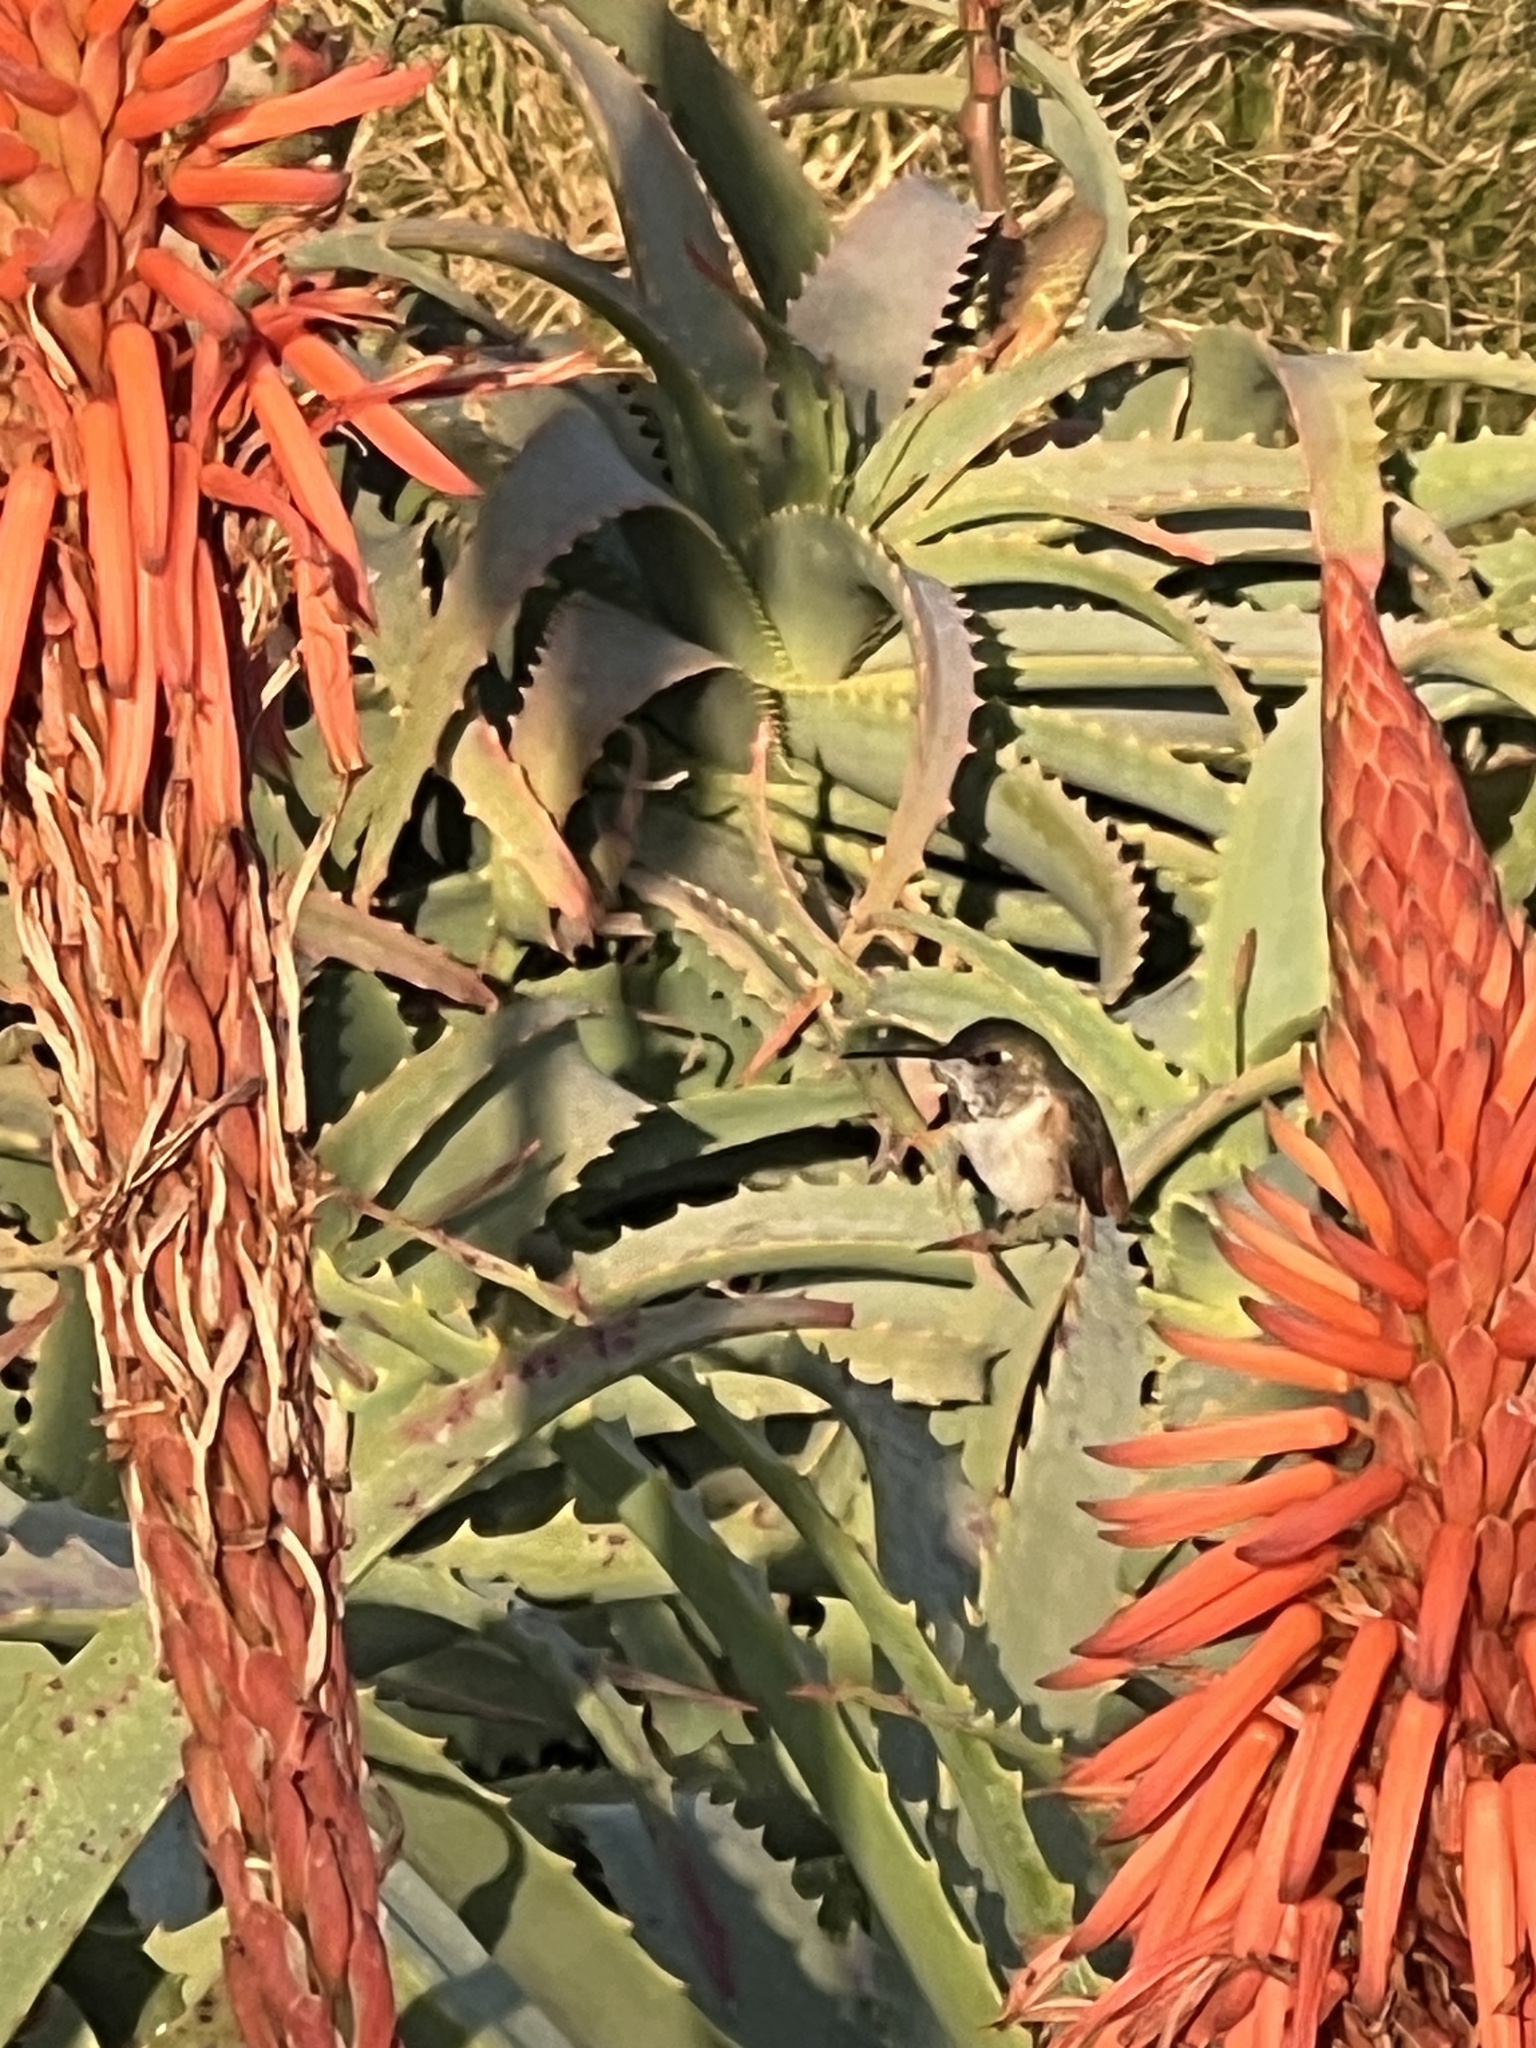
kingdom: Animalia
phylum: Chordata
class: Aves
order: Apodiformes
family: Trochilidae
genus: Selasphorus
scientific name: Selasphorus sasin
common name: Allen's hummingbird
